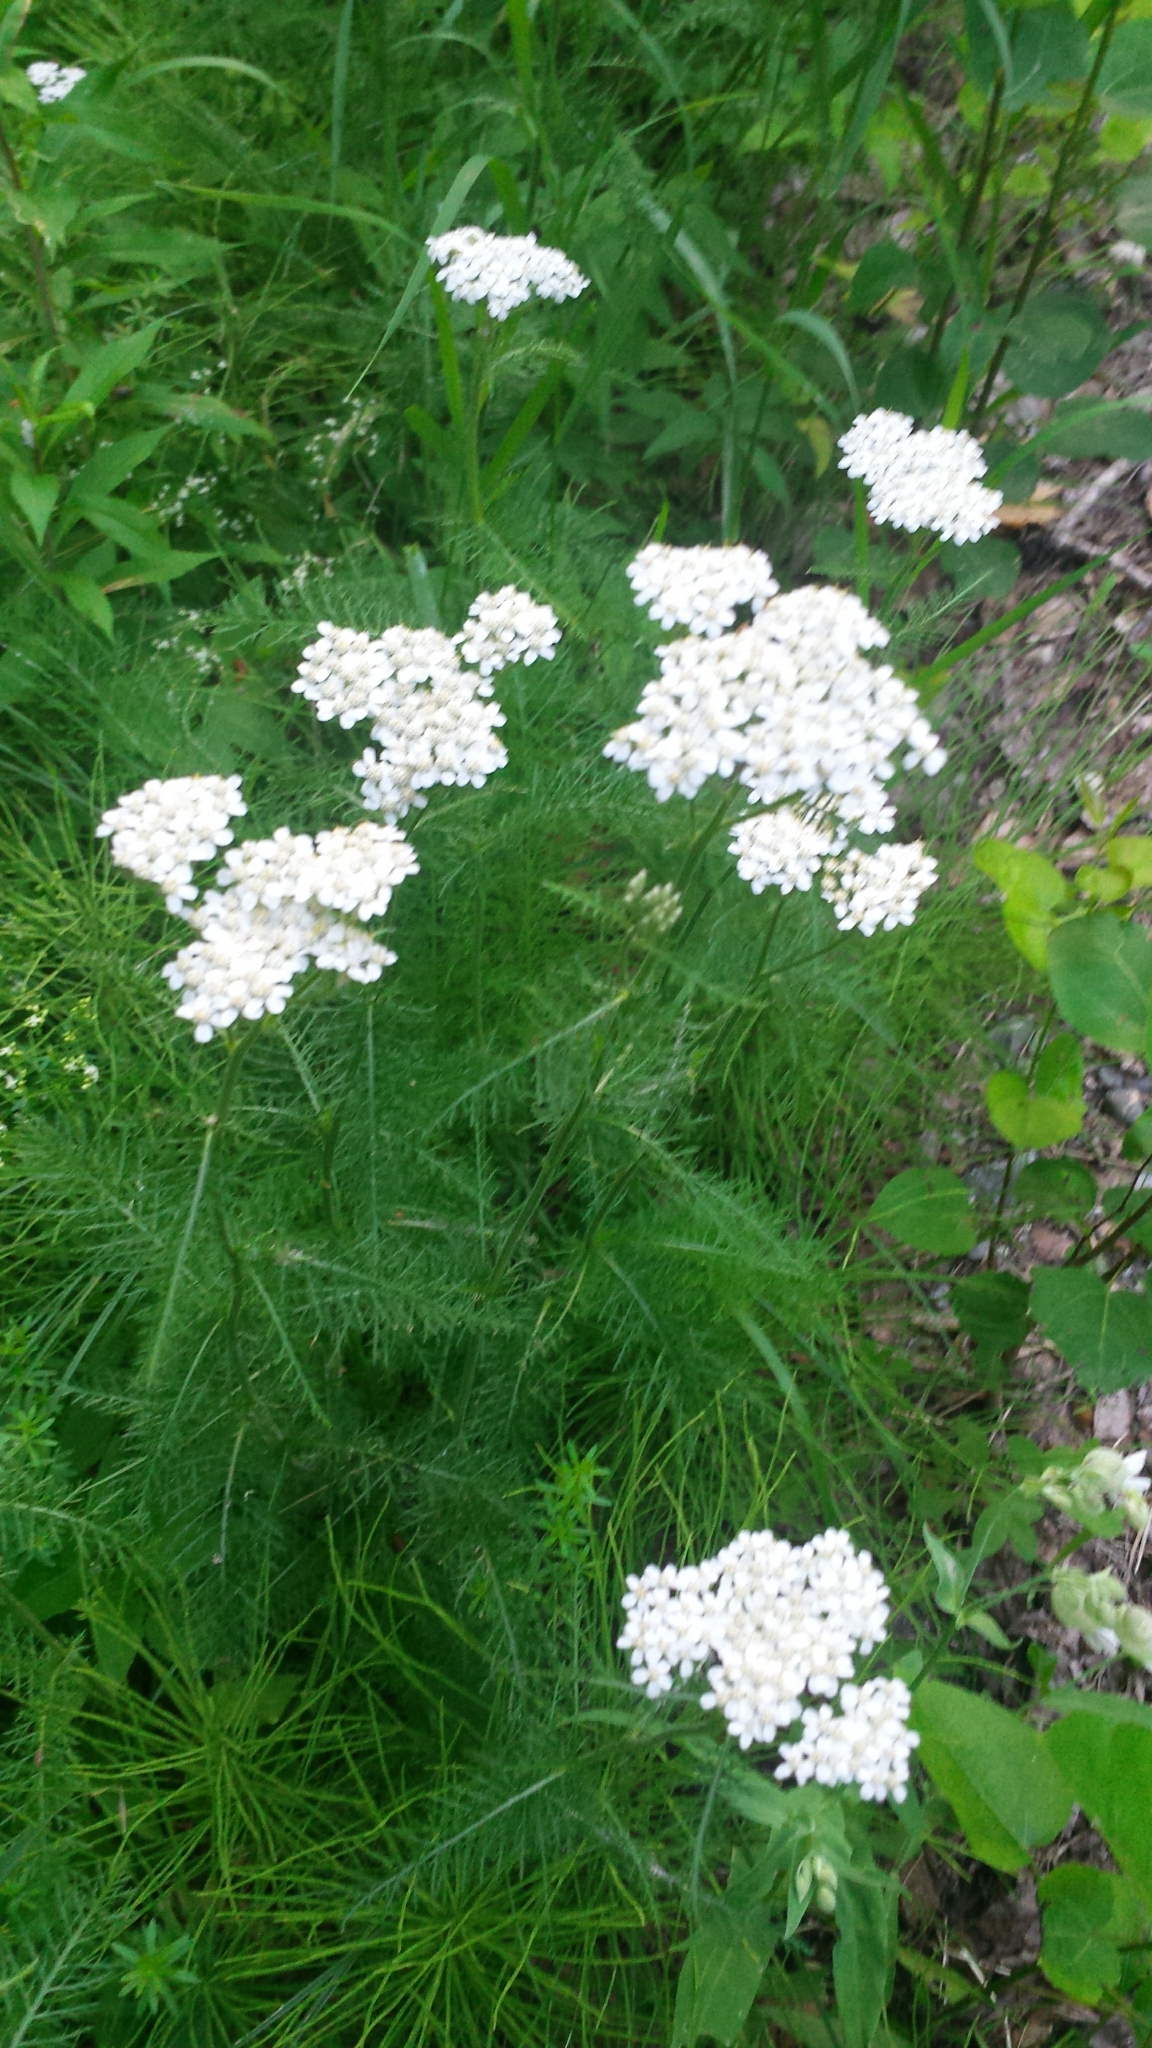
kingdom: Plantae
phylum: Tracheophyta
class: Magnoliopsida
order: Asterales
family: Asteraceae
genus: Achillea
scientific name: Achillea millefolium
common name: Yarrow
